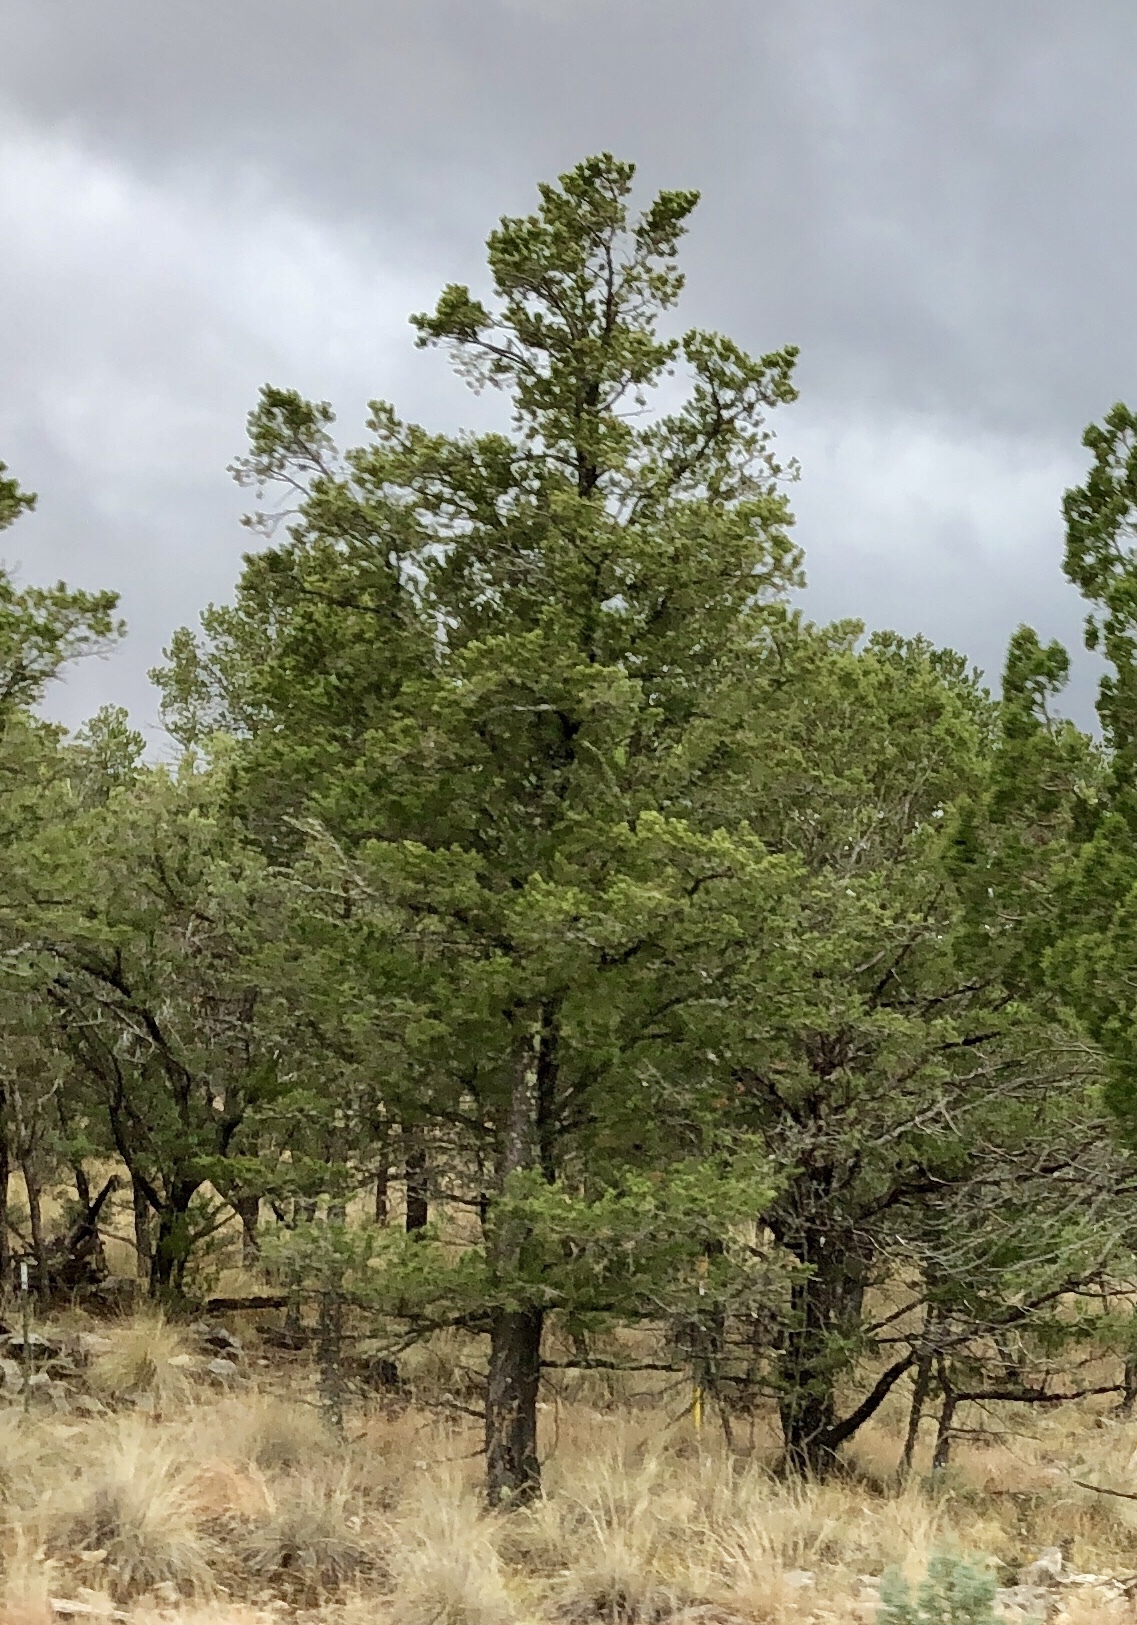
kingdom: Plantae
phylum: Tracheophyta
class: Pinopsida
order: Pinales
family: Pinaceae
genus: Pinus
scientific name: Pinus edulis
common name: Colorado pinyon
